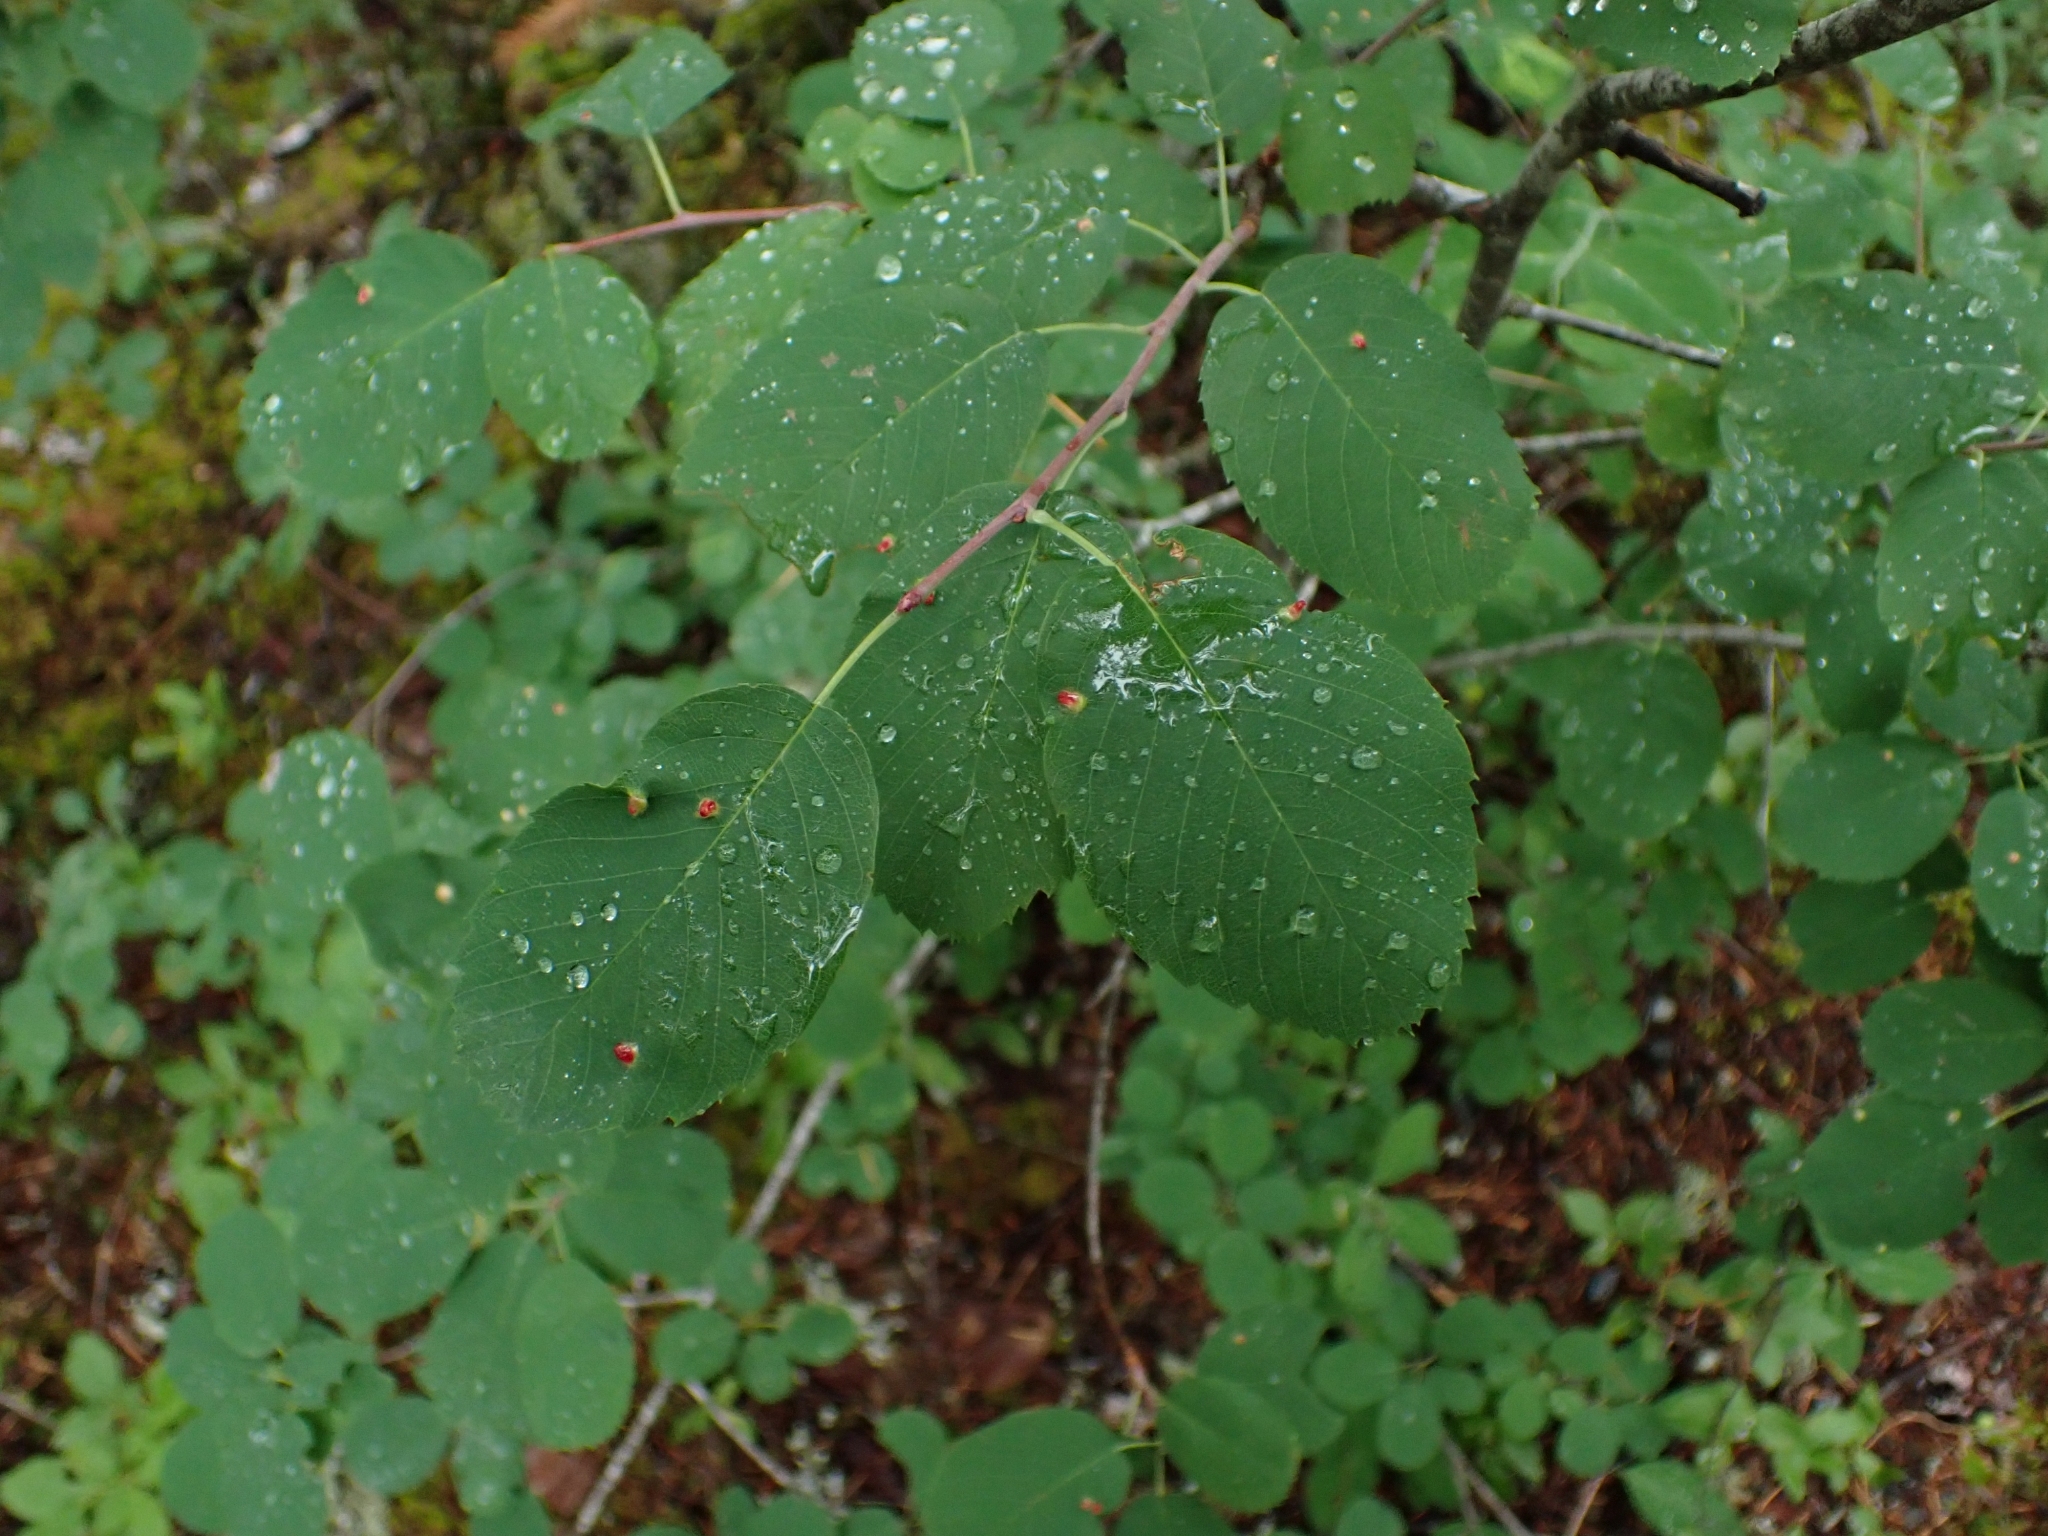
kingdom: Plantae
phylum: Tracheophyta
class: Magnoliopsida
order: Rosales
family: Rosaceae
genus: Amelanchier
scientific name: Amelanchier alnifolia
